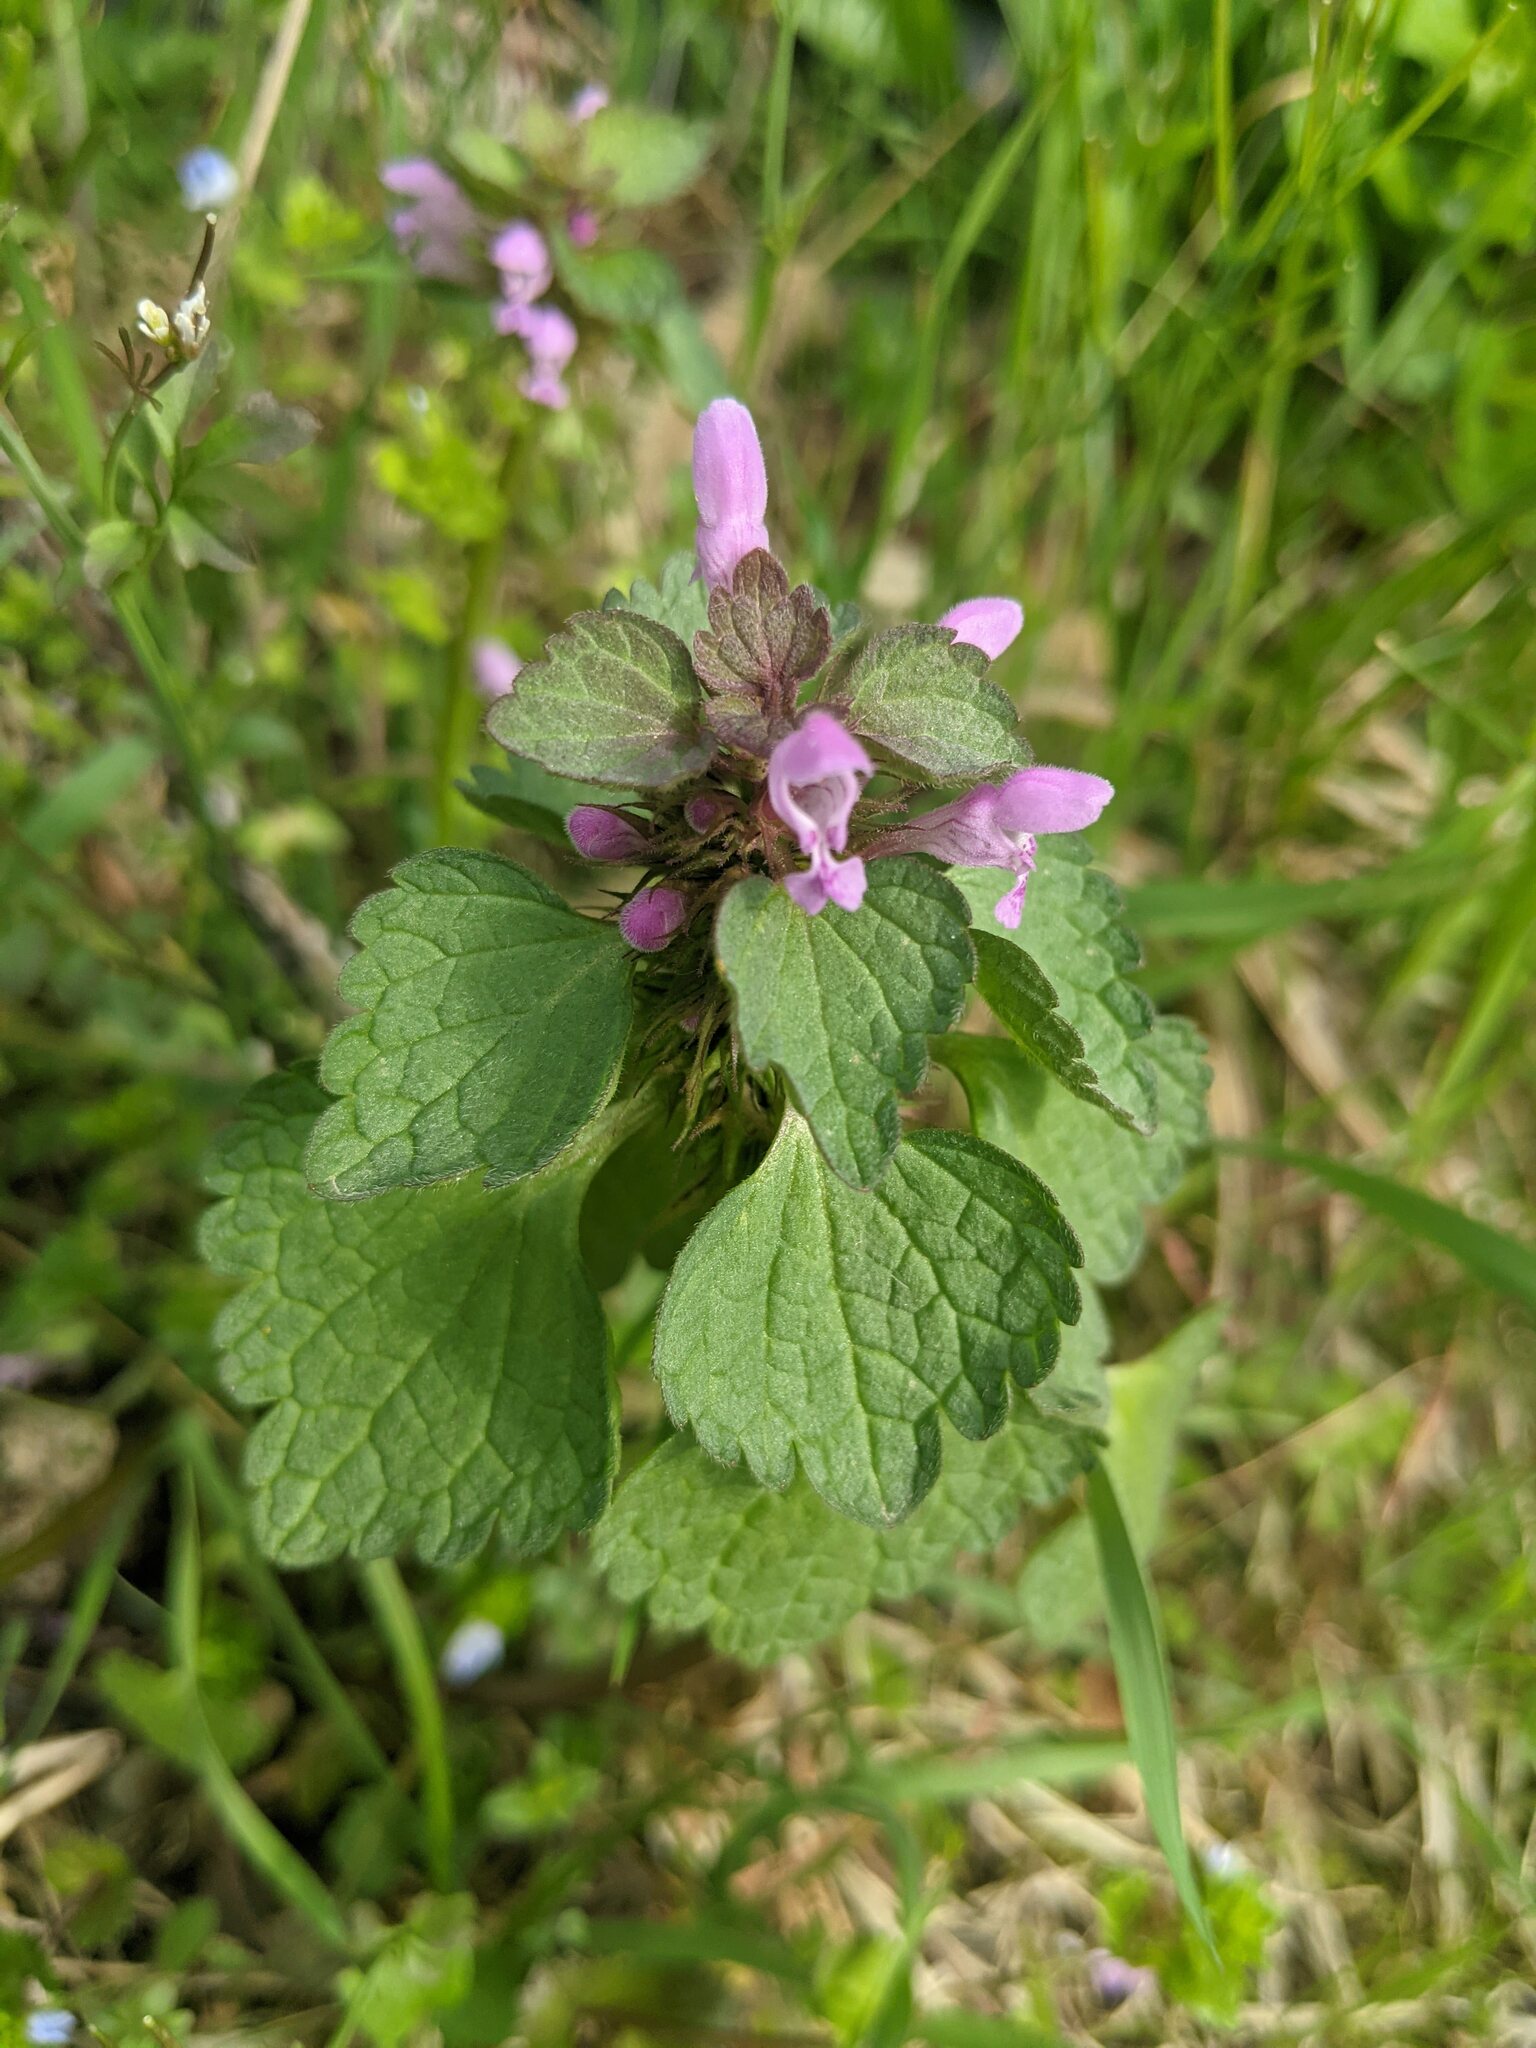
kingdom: Plantae
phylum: Tracheophyta
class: Magnoliopsida
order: Lamiales
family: Lamiaceae
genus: Lamium
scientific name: Lamium purpureum
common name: Red dead-nettle
